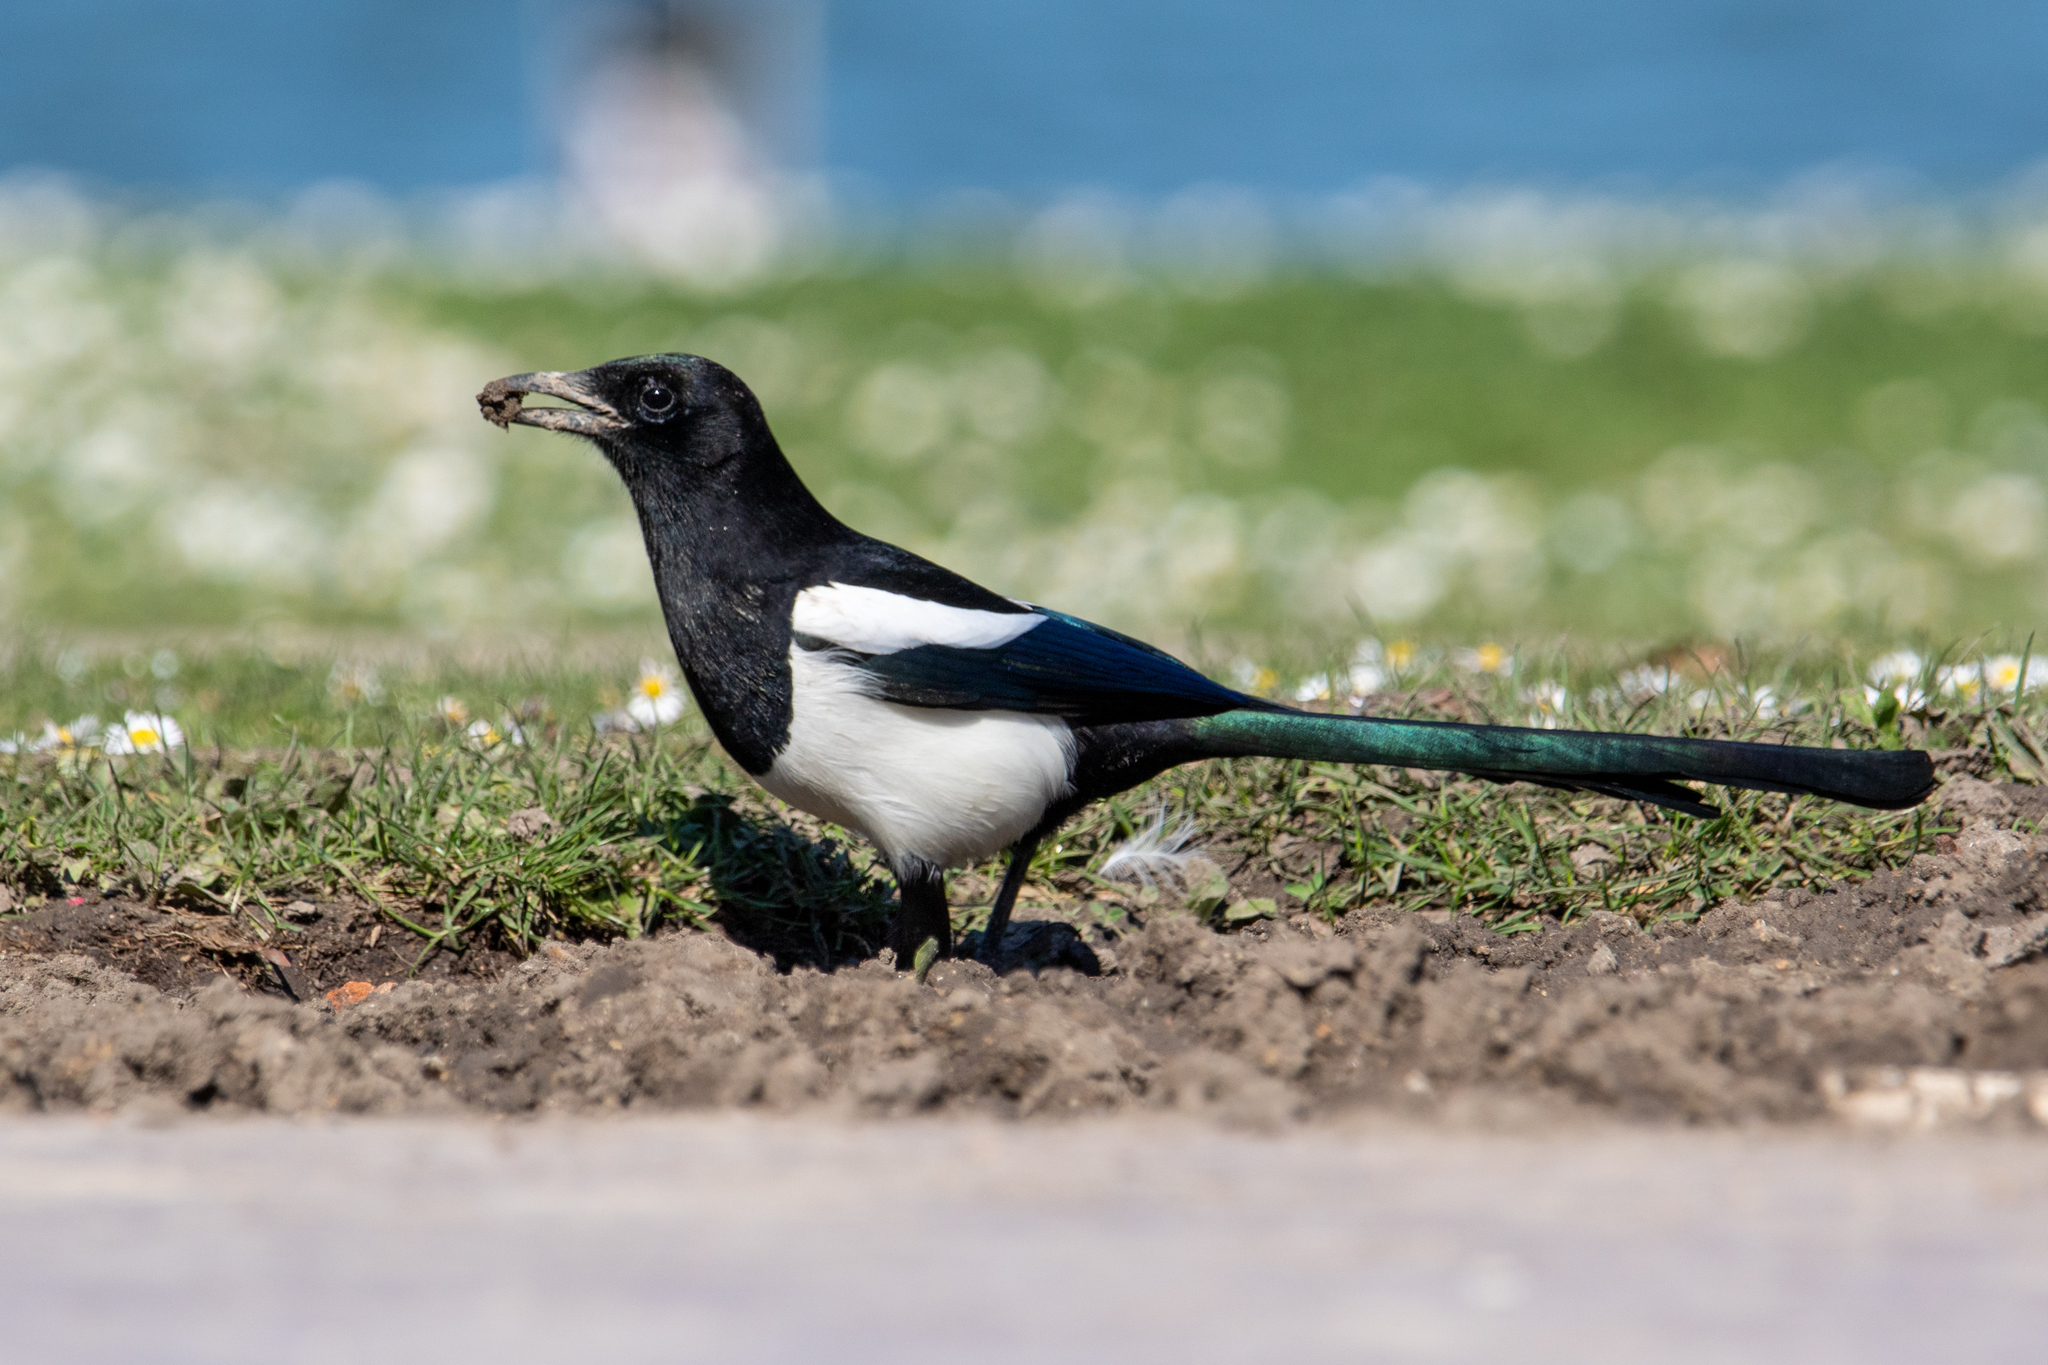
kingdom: Animalia
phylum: Chordata
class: Aves
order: Passeriformes
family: Corvidae
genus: Pica
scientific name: Pica pica
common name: Eurasian magpie
